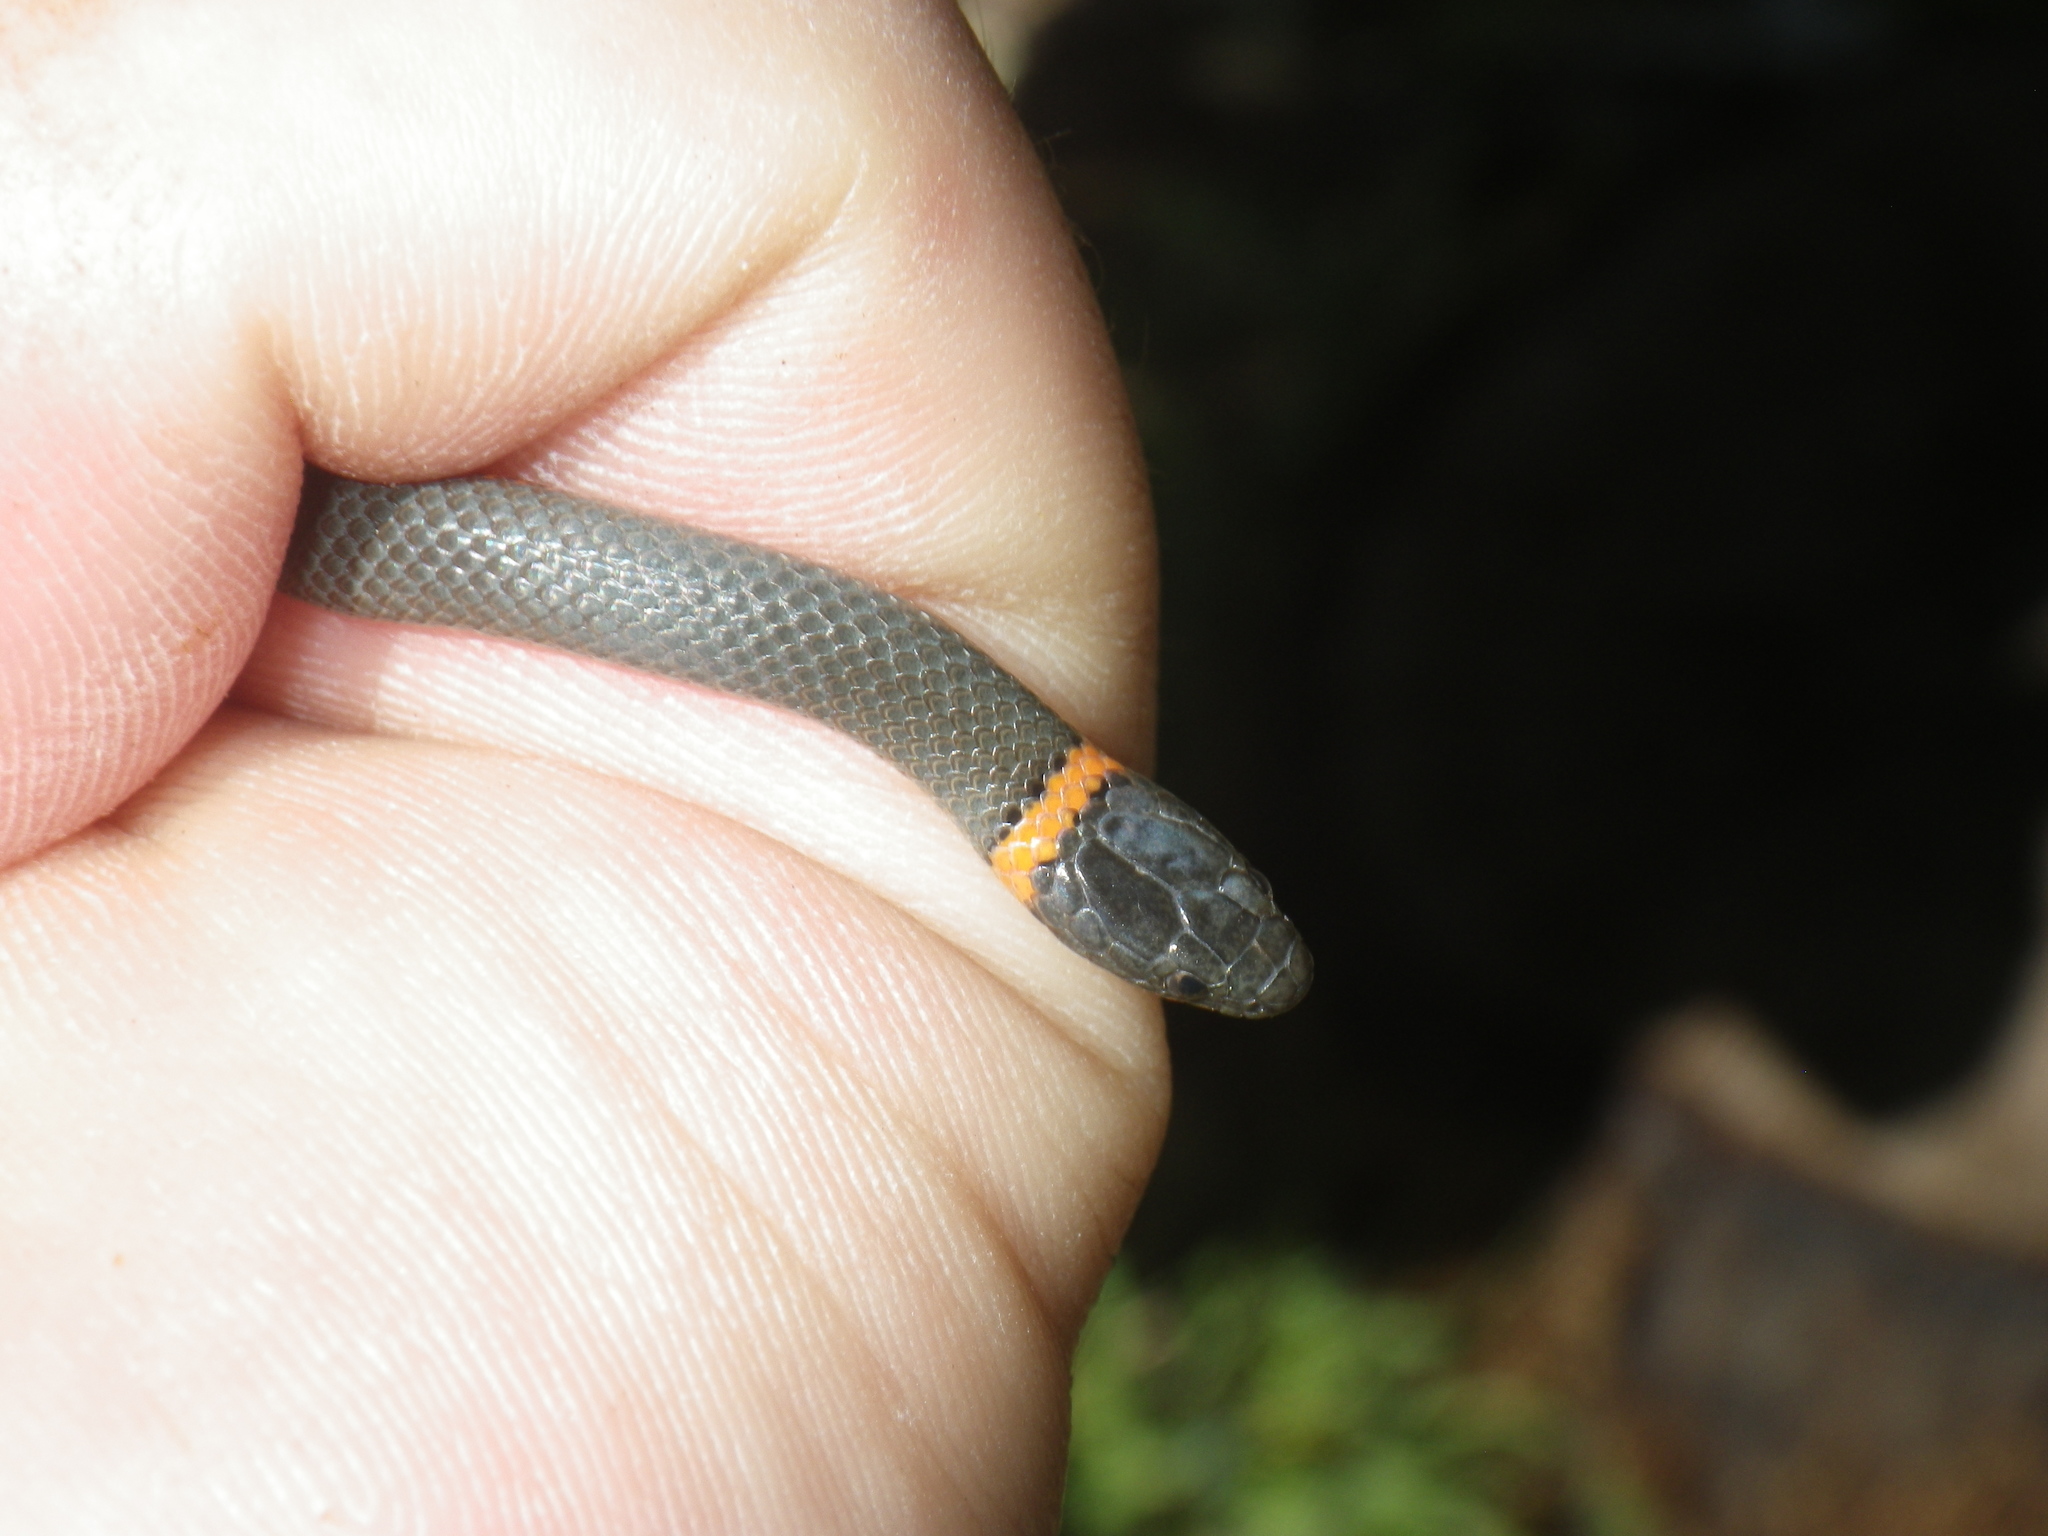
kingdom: Animalia
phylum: Chordata
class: Squamata
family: Colubridae
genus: Diadophis
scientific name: Diadophis punctatus
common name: Ringneck snake
